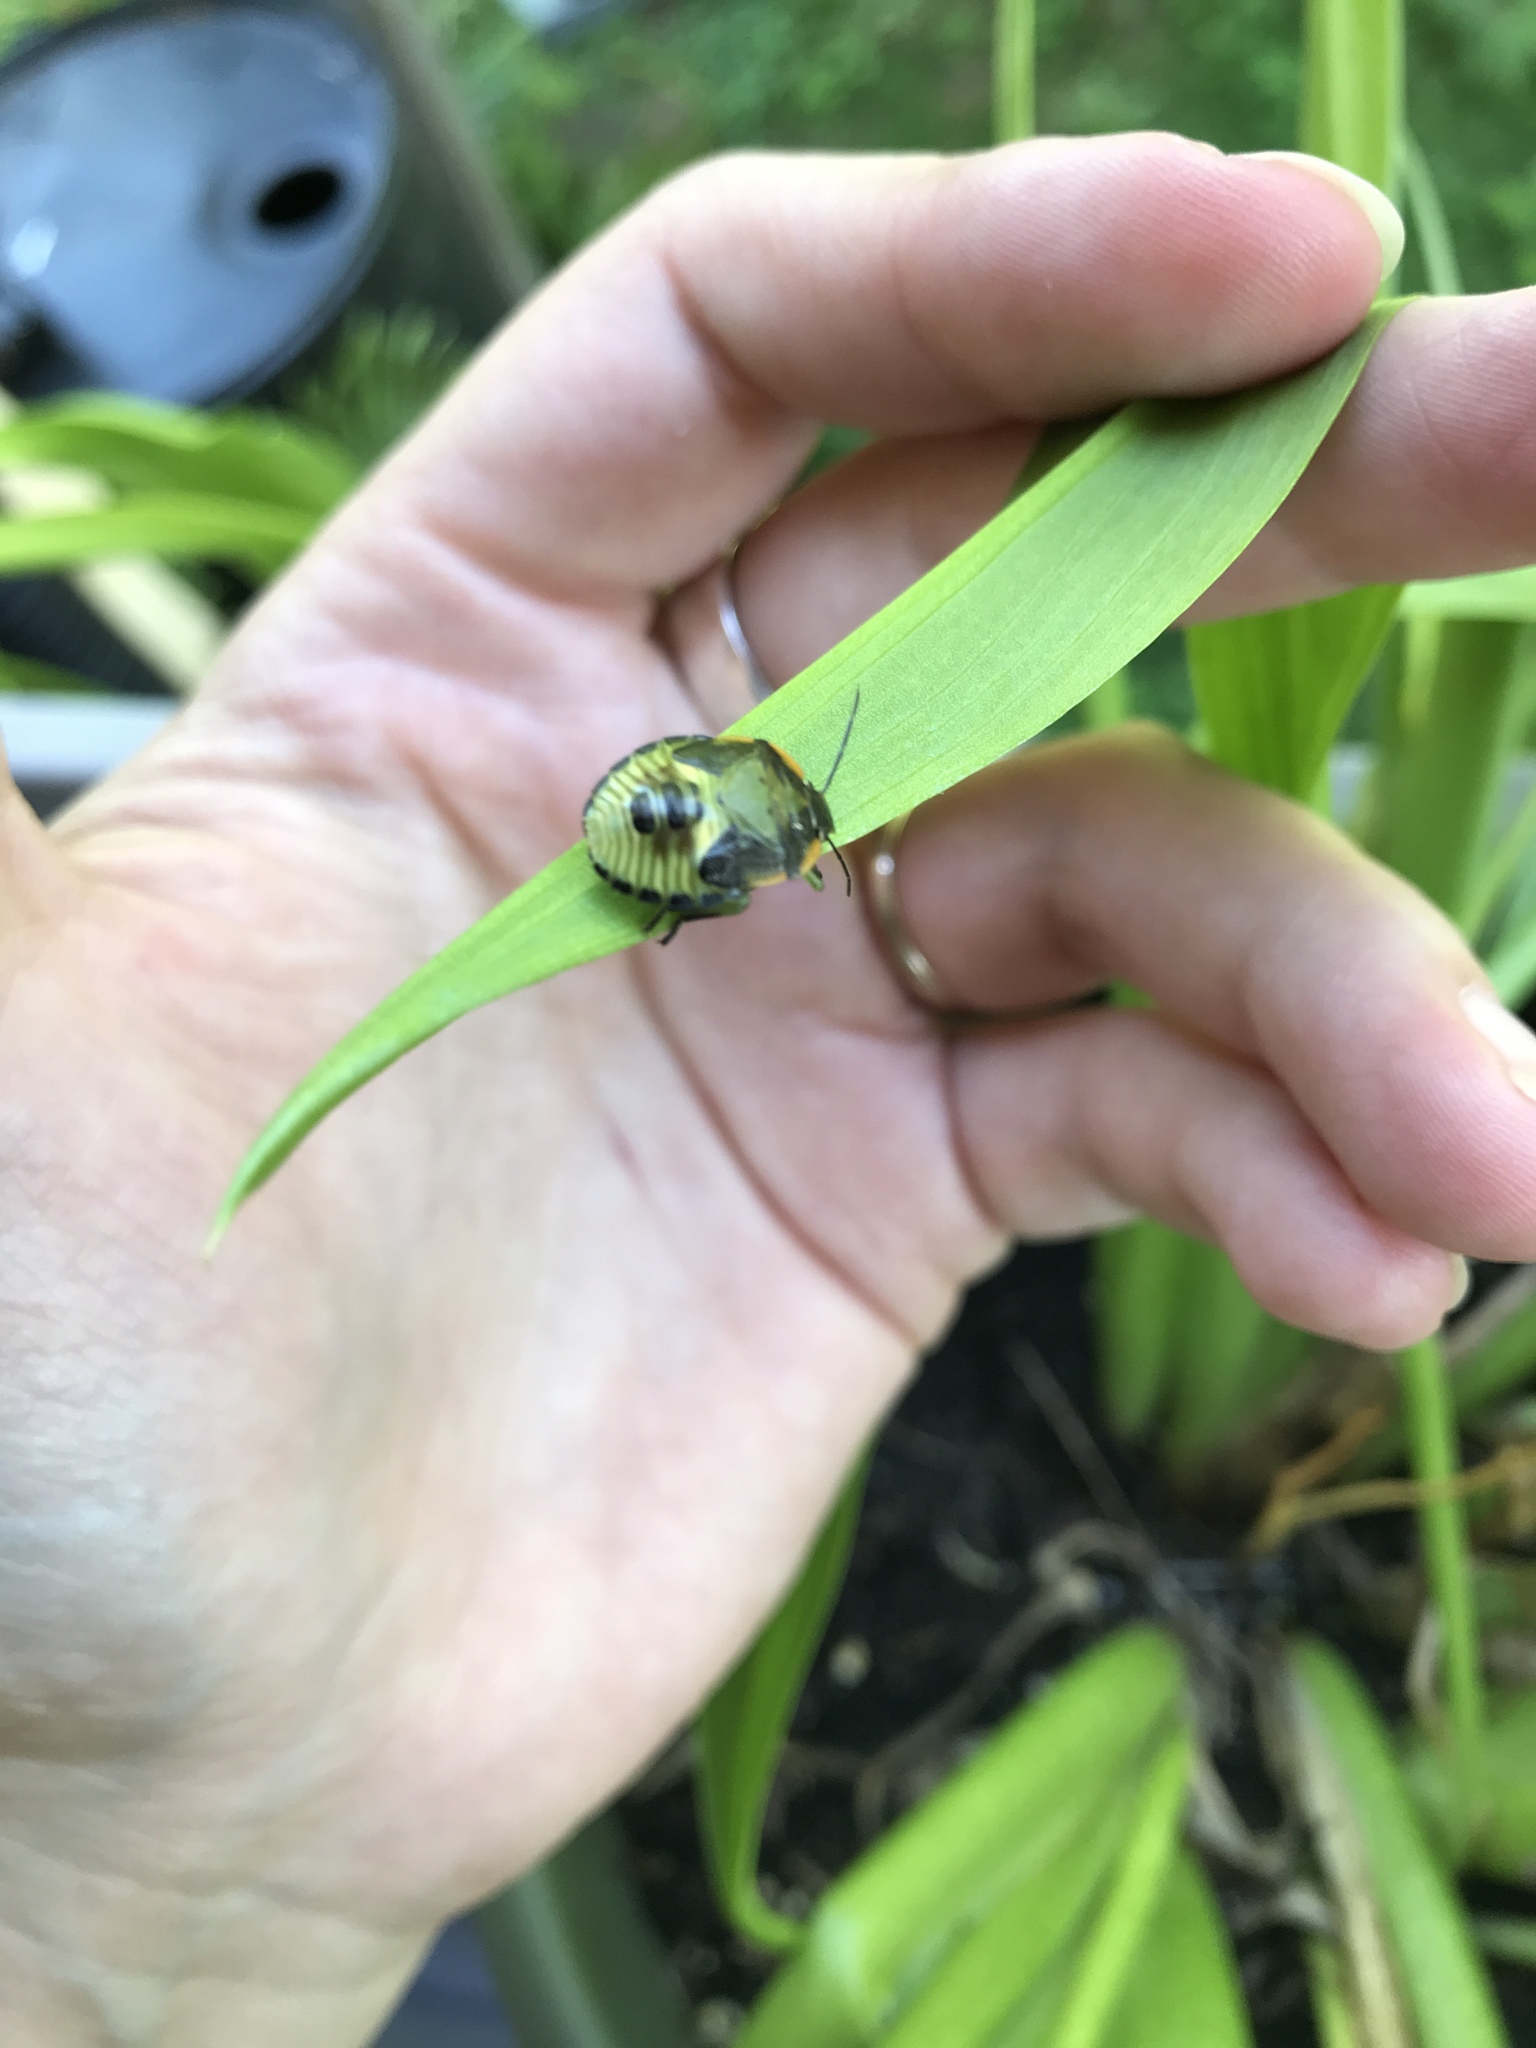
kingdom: Animalia
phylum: Arthropoda
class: Insecta
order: Hemiptera
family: Pentatomidae
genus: Chinavia
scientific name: Chinavia hilaris
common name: Green stink bug
